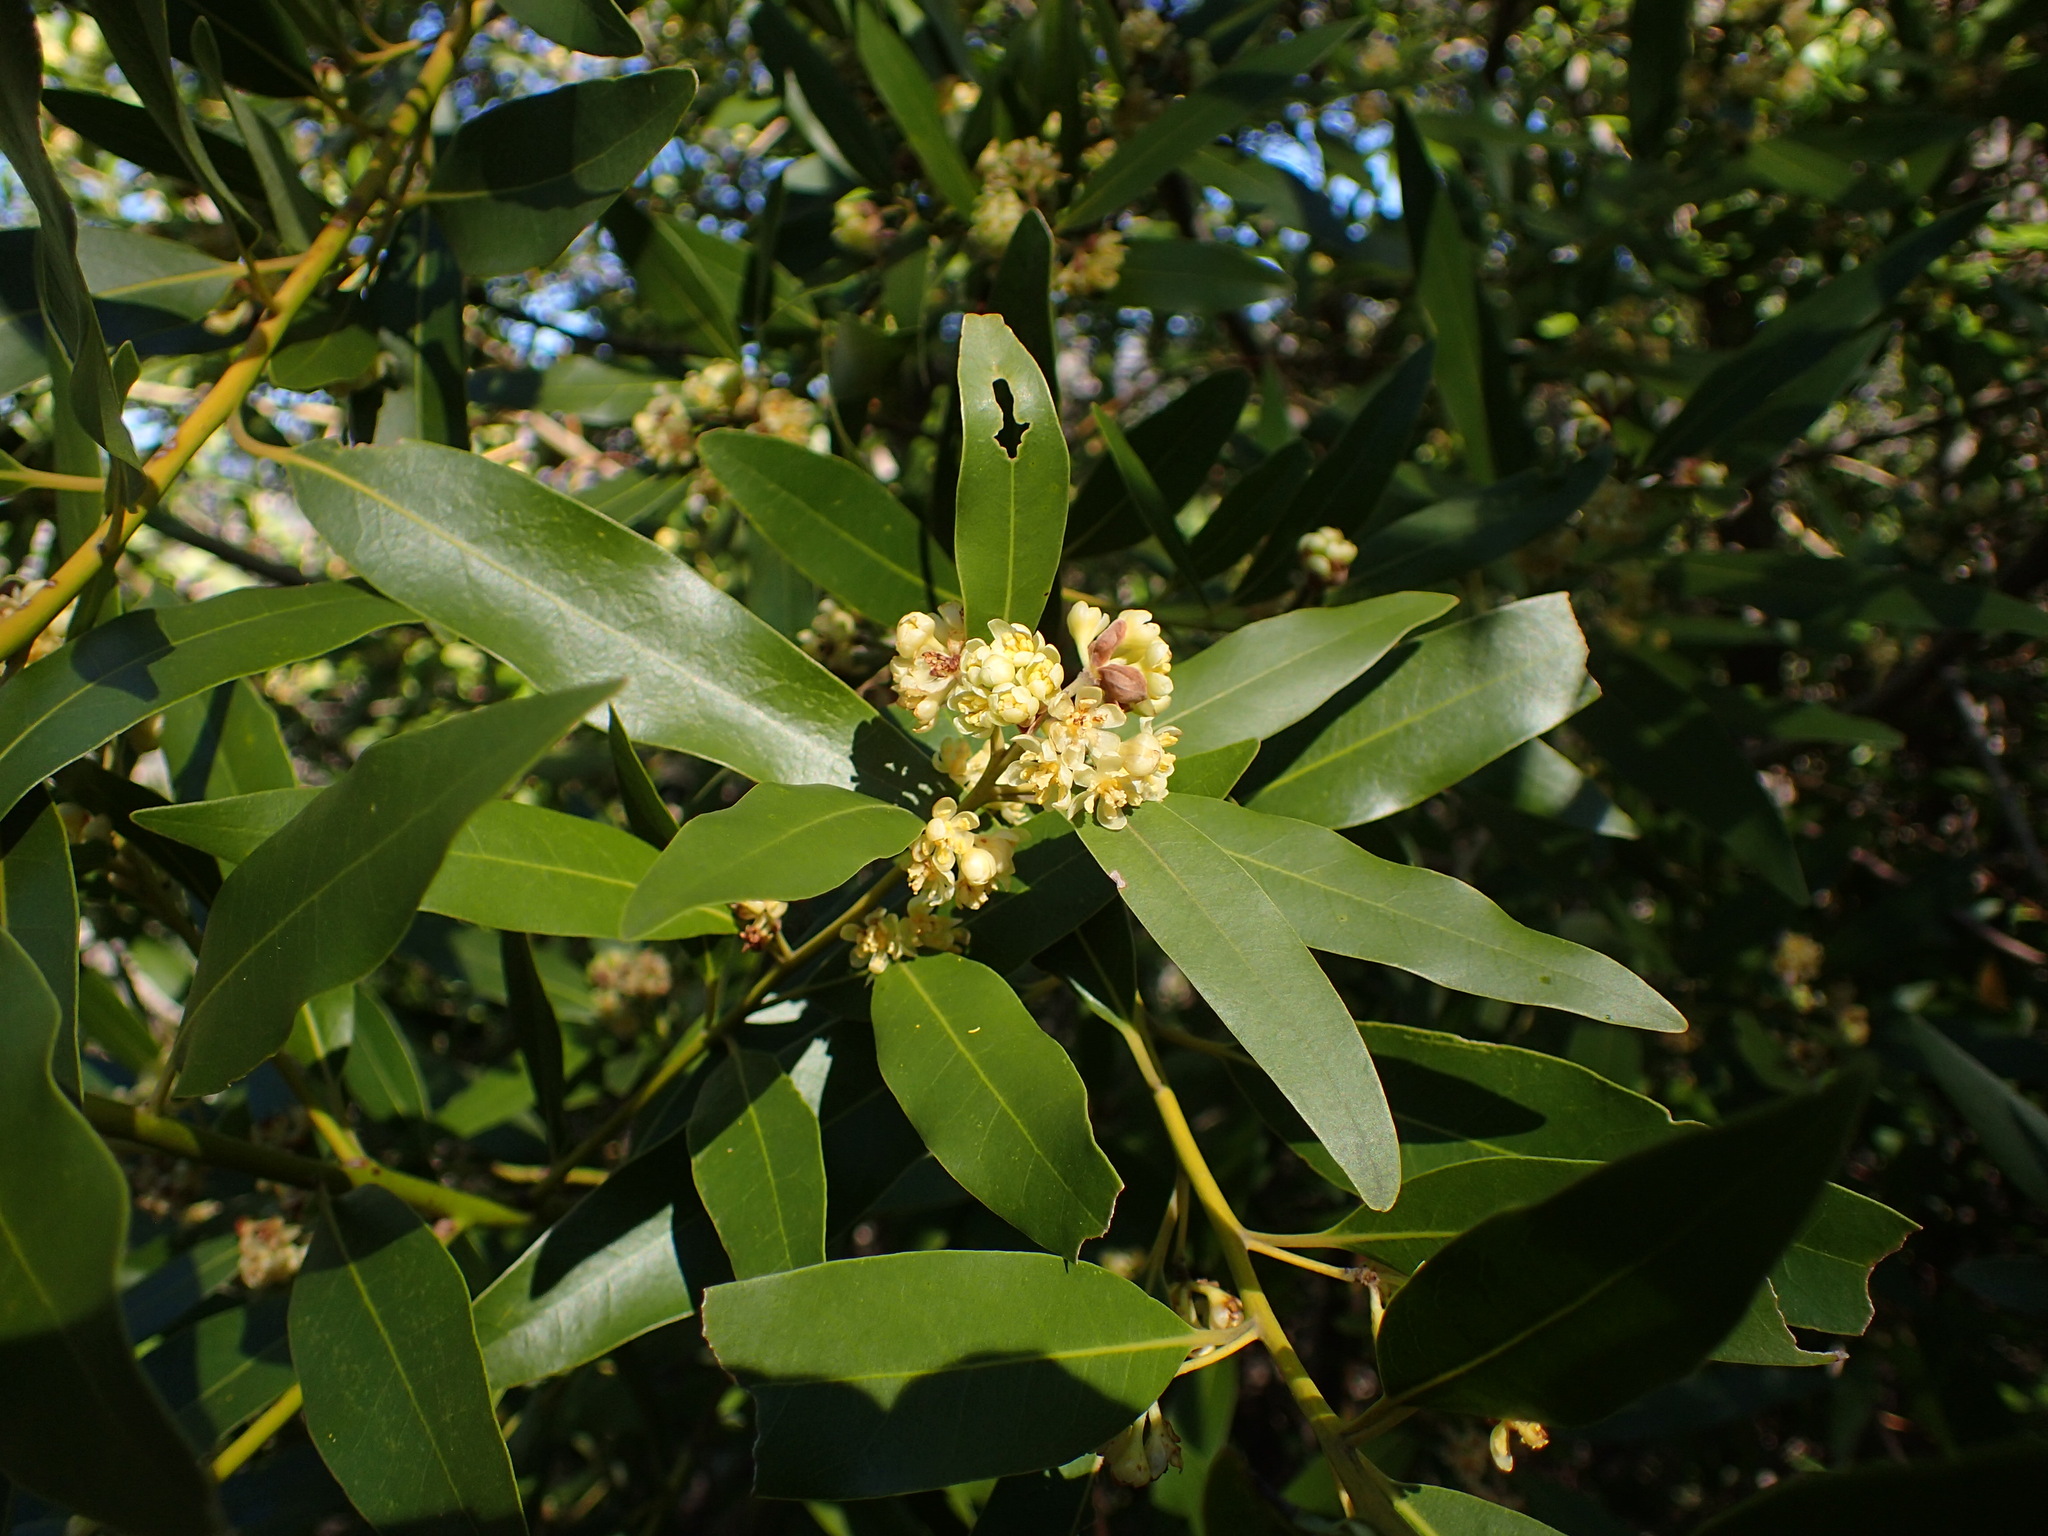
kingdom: Plantae
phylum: Tracheophyta
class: Magnoliopsida
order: Laurales
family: Lauraceae
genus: Umbellularia
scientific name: Umbellularia californica
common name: California bay
